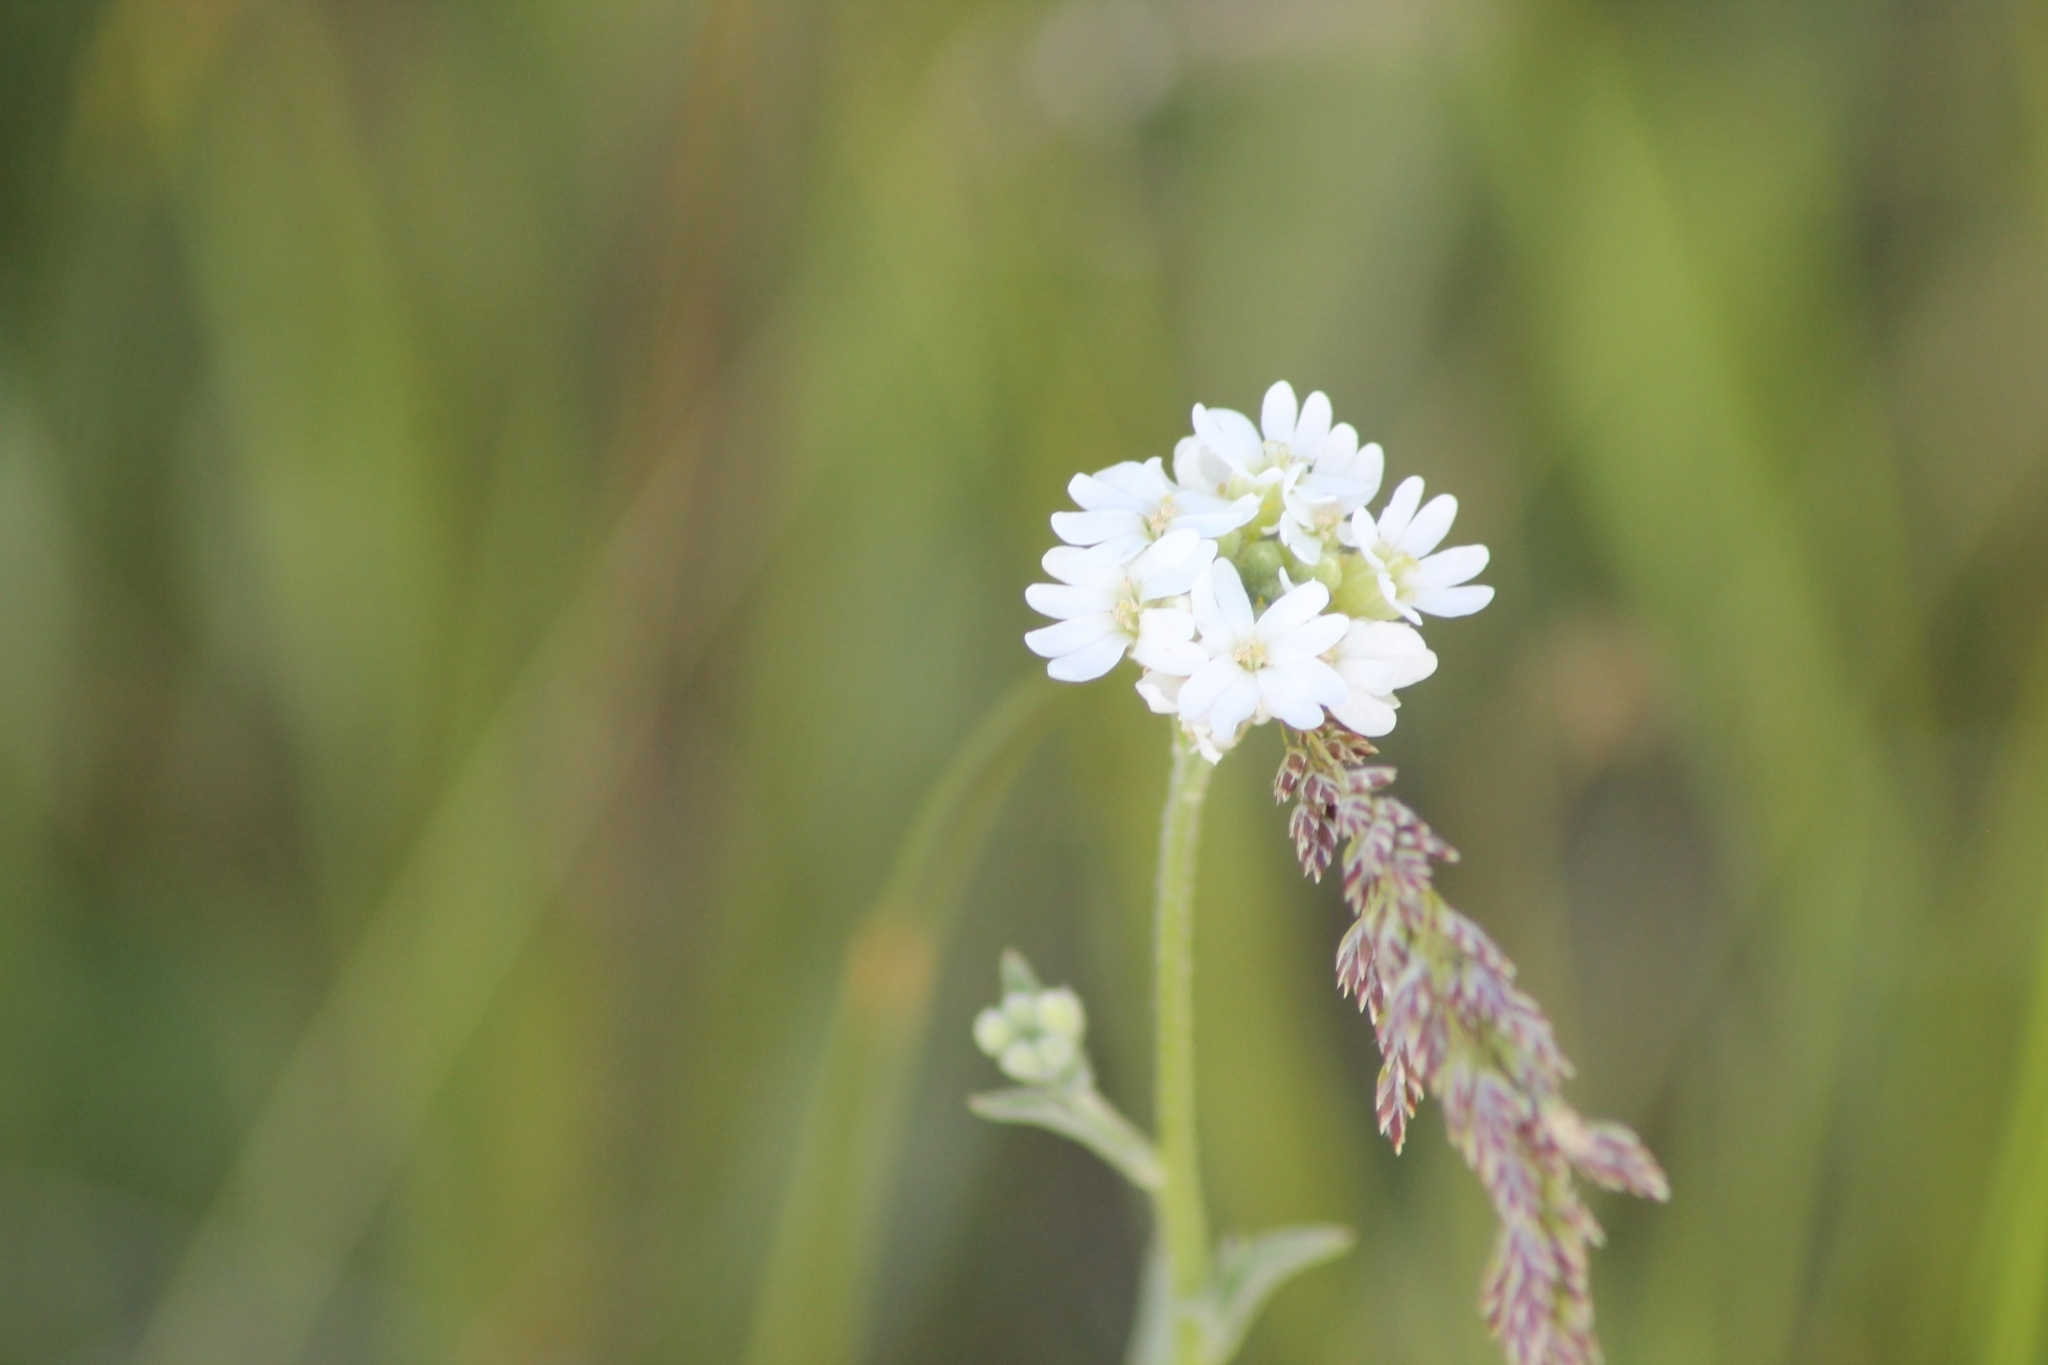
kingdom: Plantae
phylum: Tracheophyta
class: Magnoliopsida
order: Brassicales
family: Brassicaceae
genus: Berteroa
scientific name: Berteroa incana
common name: Hoary alison
